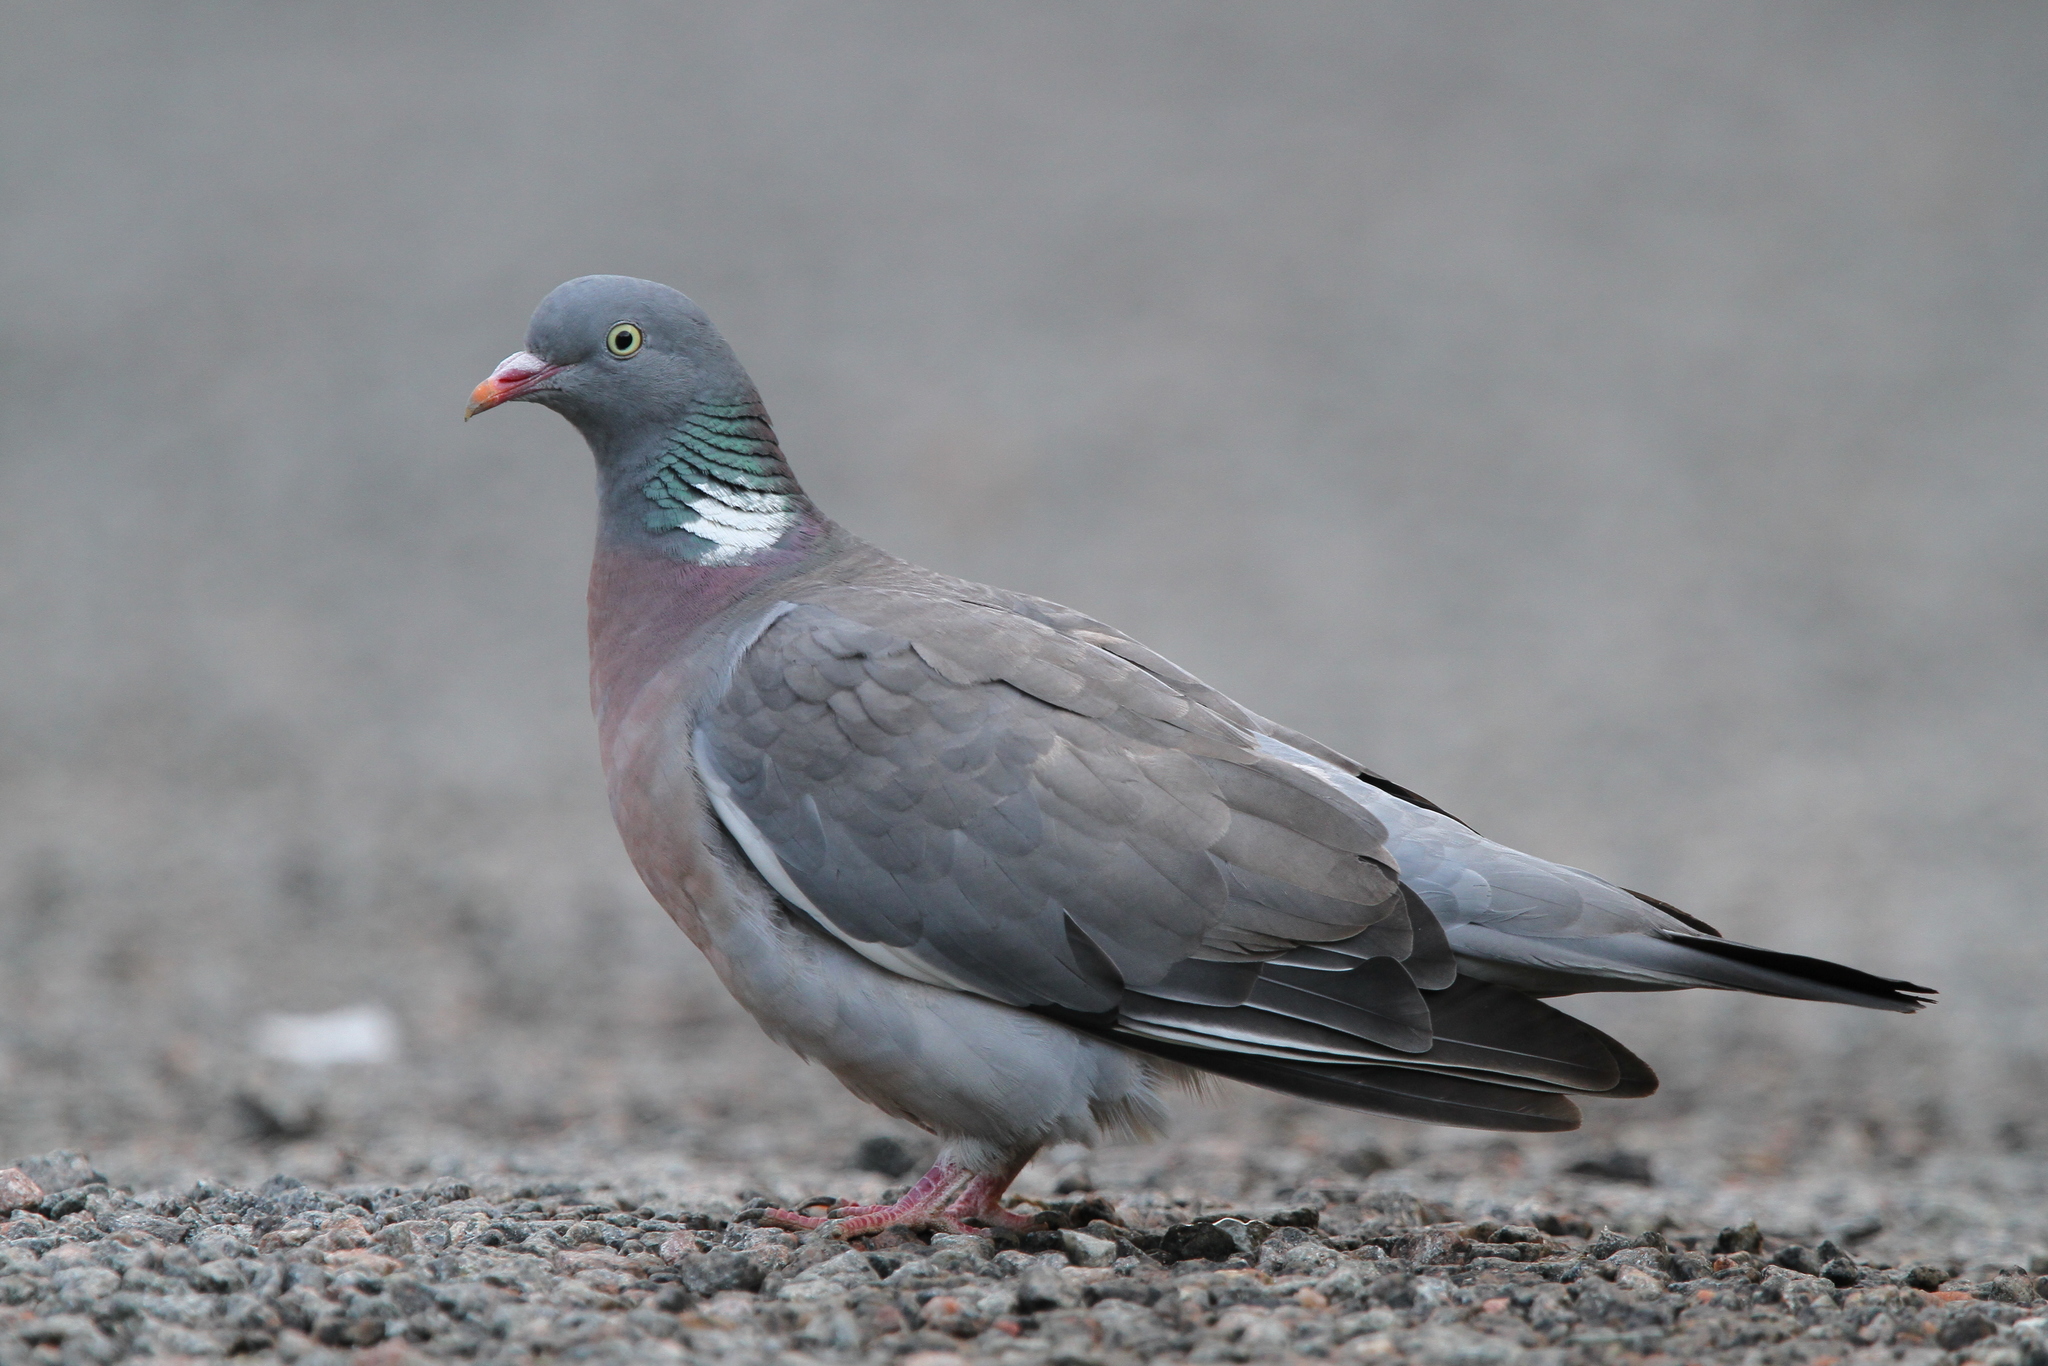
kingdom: Animalia
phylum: Chordata
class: Aves
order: Columbiformes
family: Columbidae
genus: Columba
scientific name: Columba palumbus
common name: Common wood pigeon
